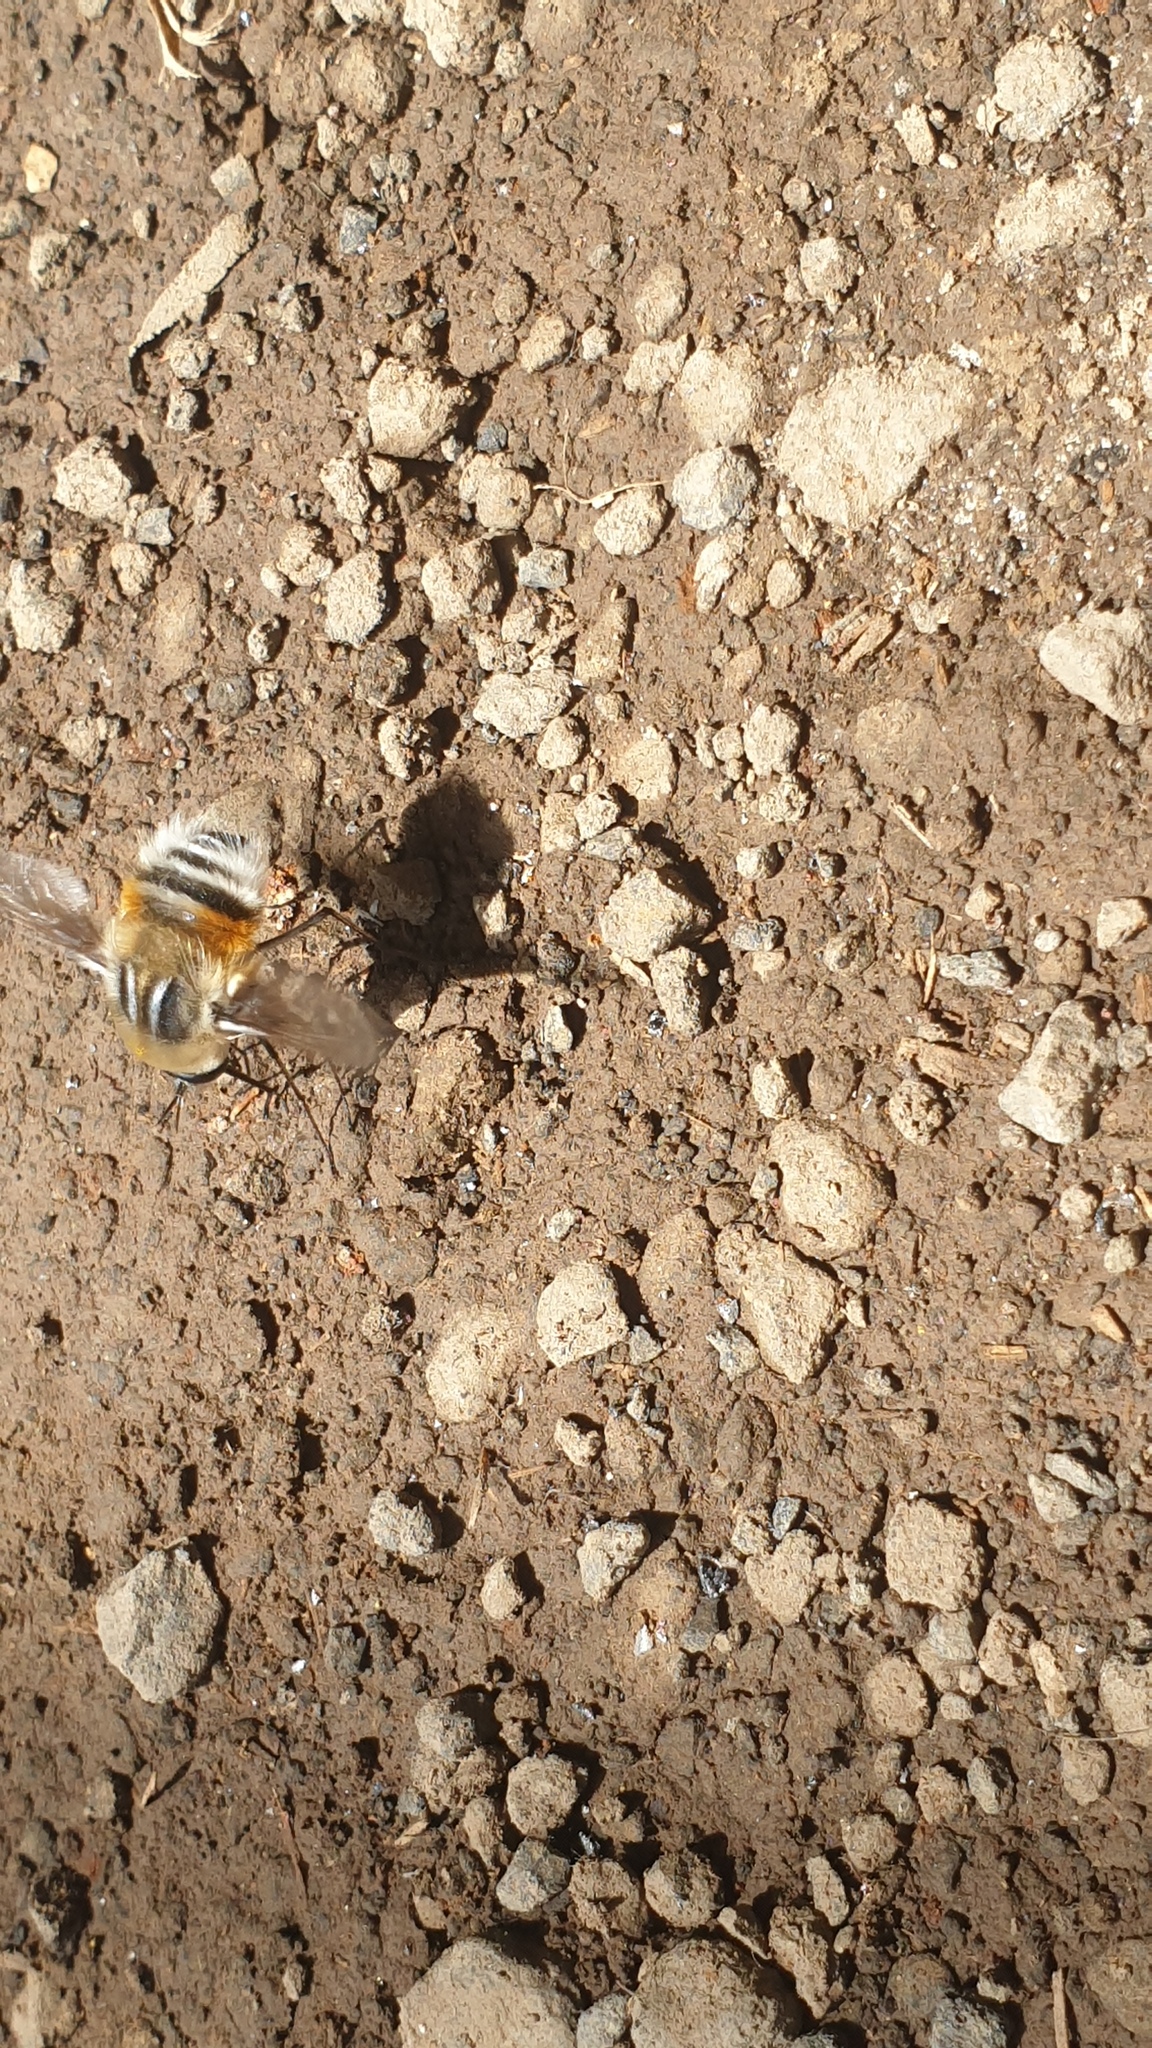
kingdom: Animalia
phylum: Arthropoda
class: Insecta
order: Diptera
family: Bombyliidae
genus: Bombylius
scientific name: Bombylius quadrifarius
